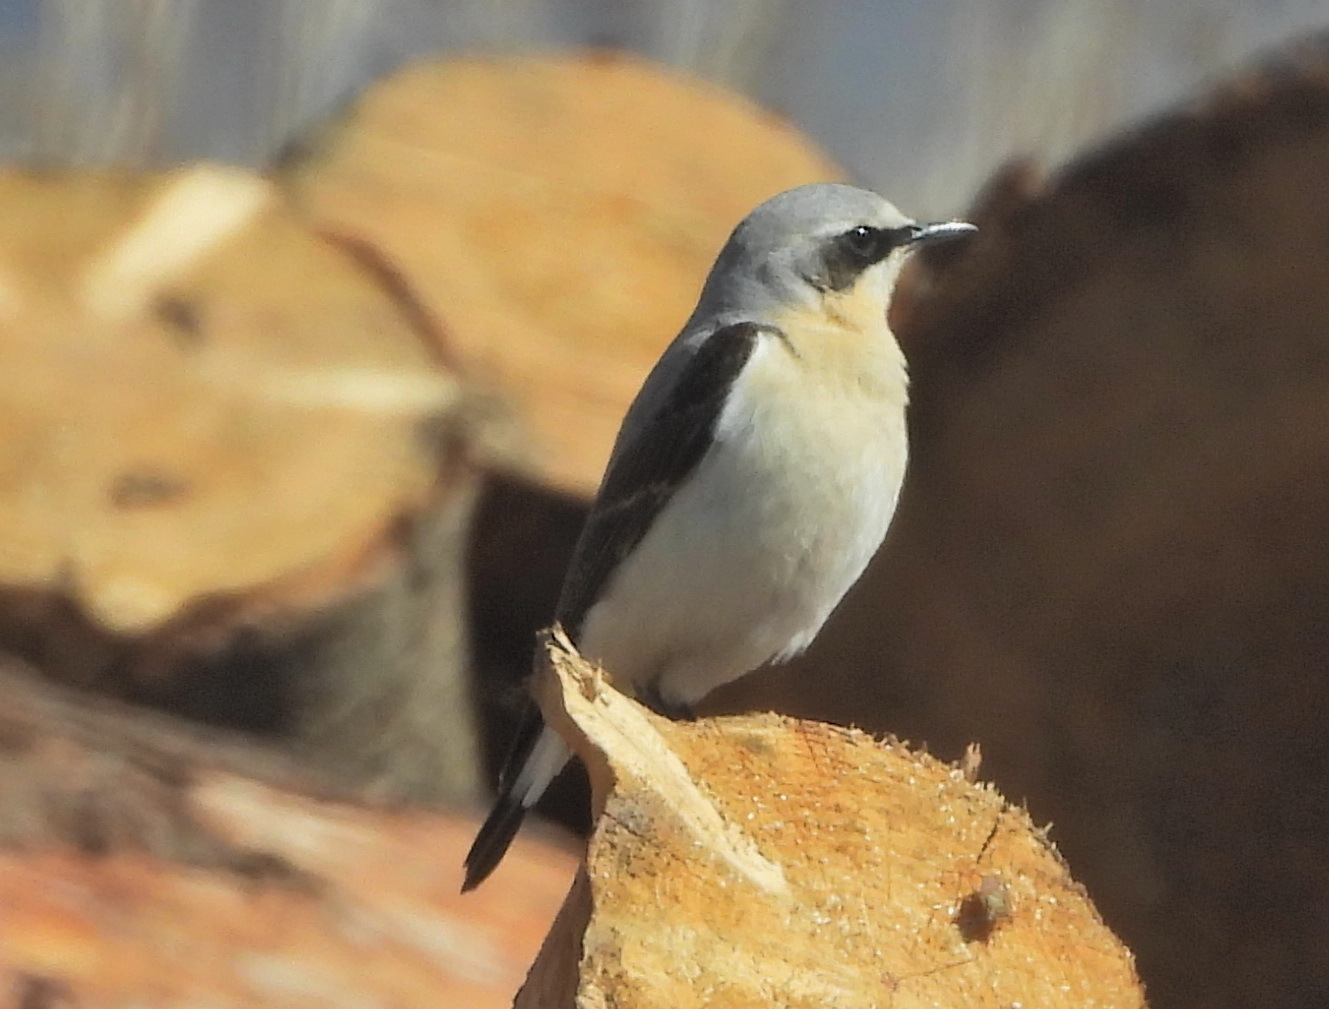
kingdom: Animalia
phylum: Chordata
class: Aves
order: Passeriformes
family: Muscicapidae
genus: Oenanthe
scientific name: Oenanthe oenanthe
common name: Northern wheatear
